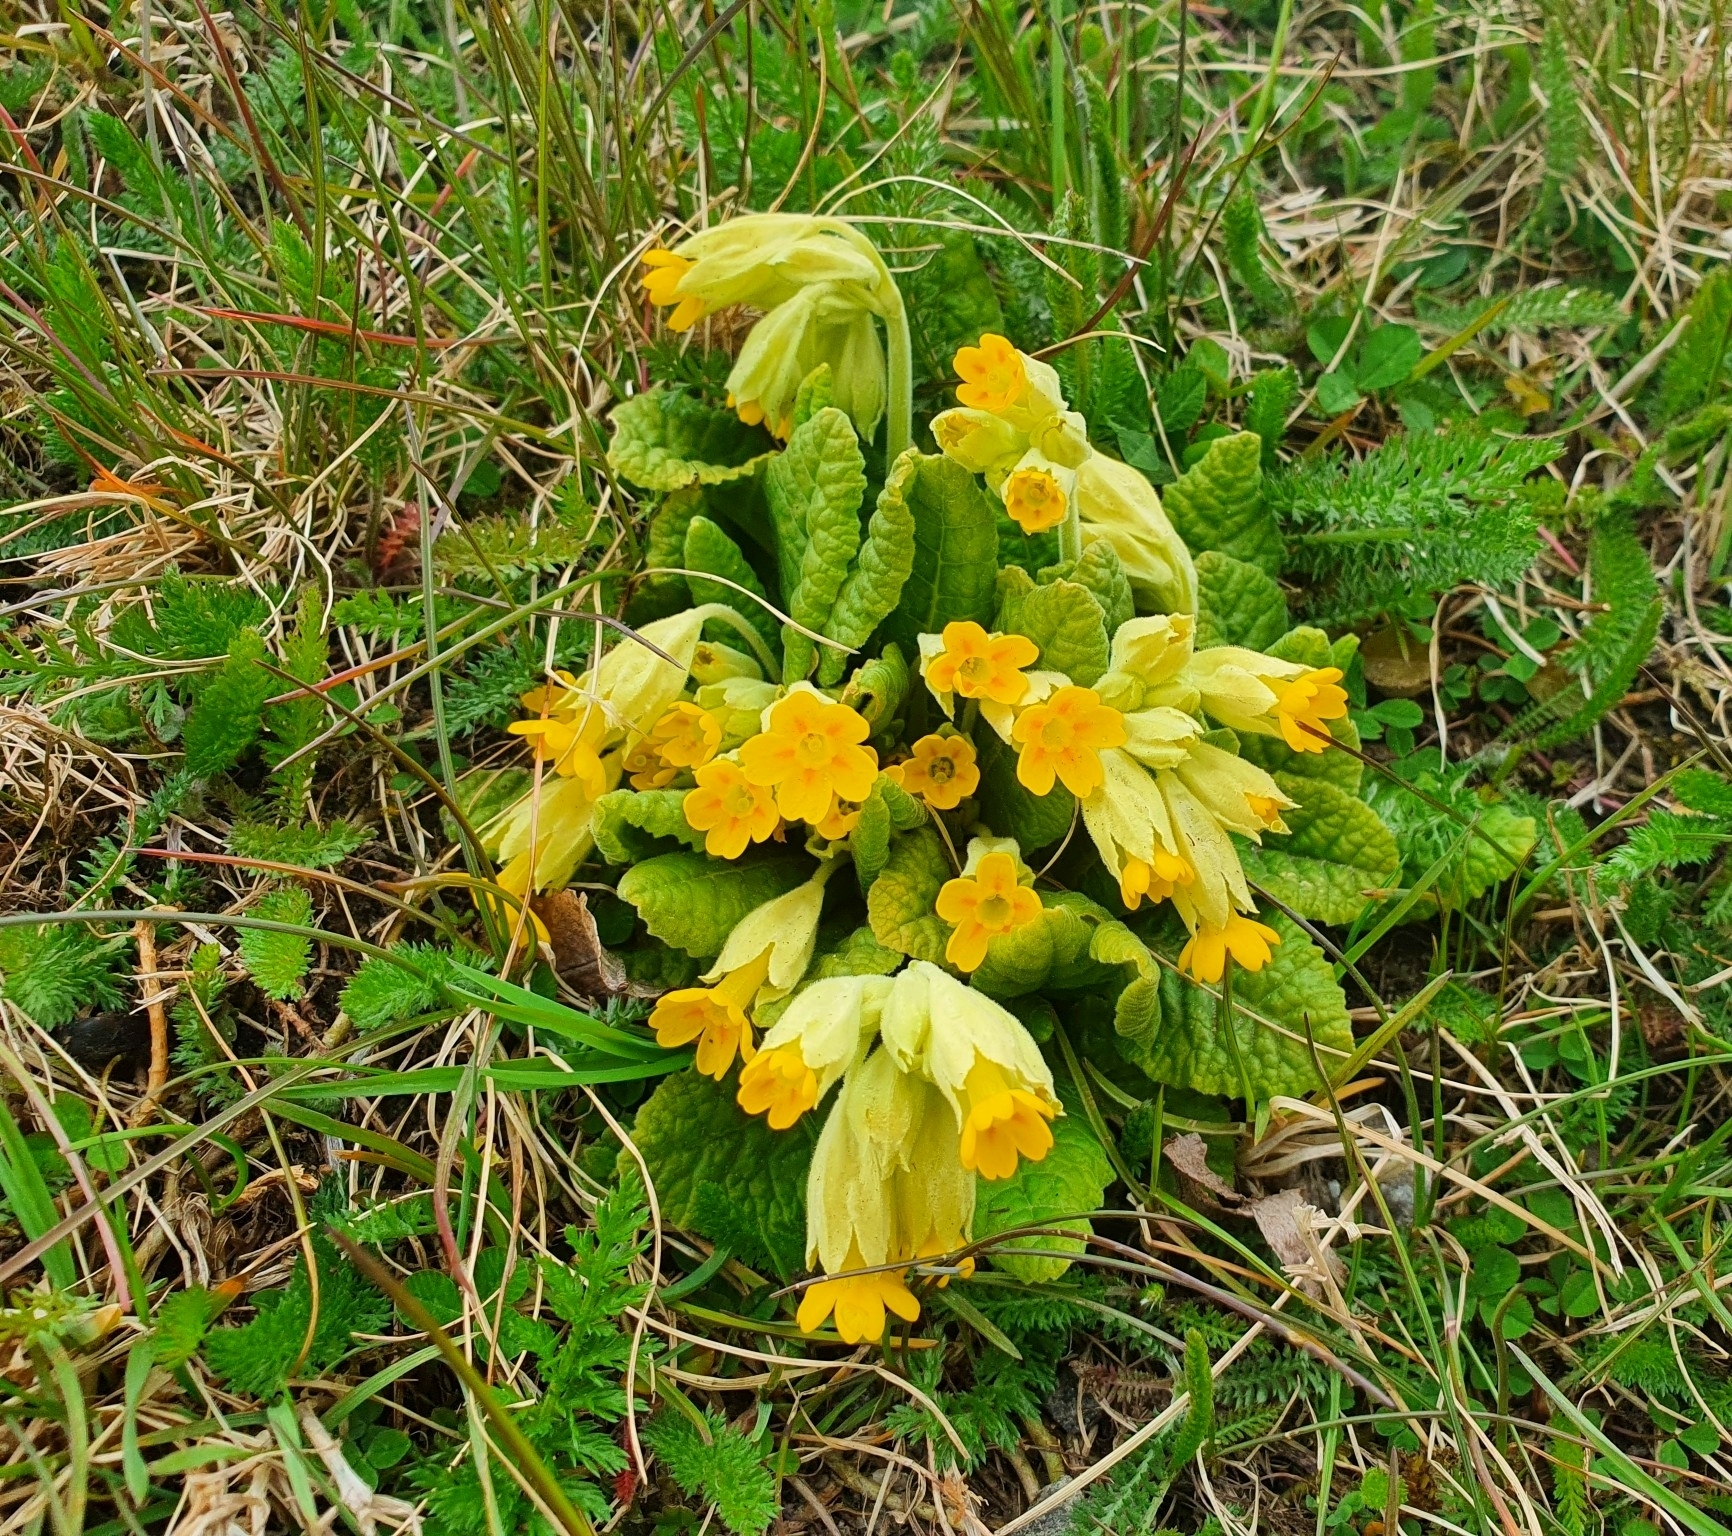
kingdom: Plantae
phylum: Tracheophyta
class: Magnoliopsida
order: Ericales
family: Primulaceae
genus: Primula
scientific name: Primula veris
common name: Cowslip
